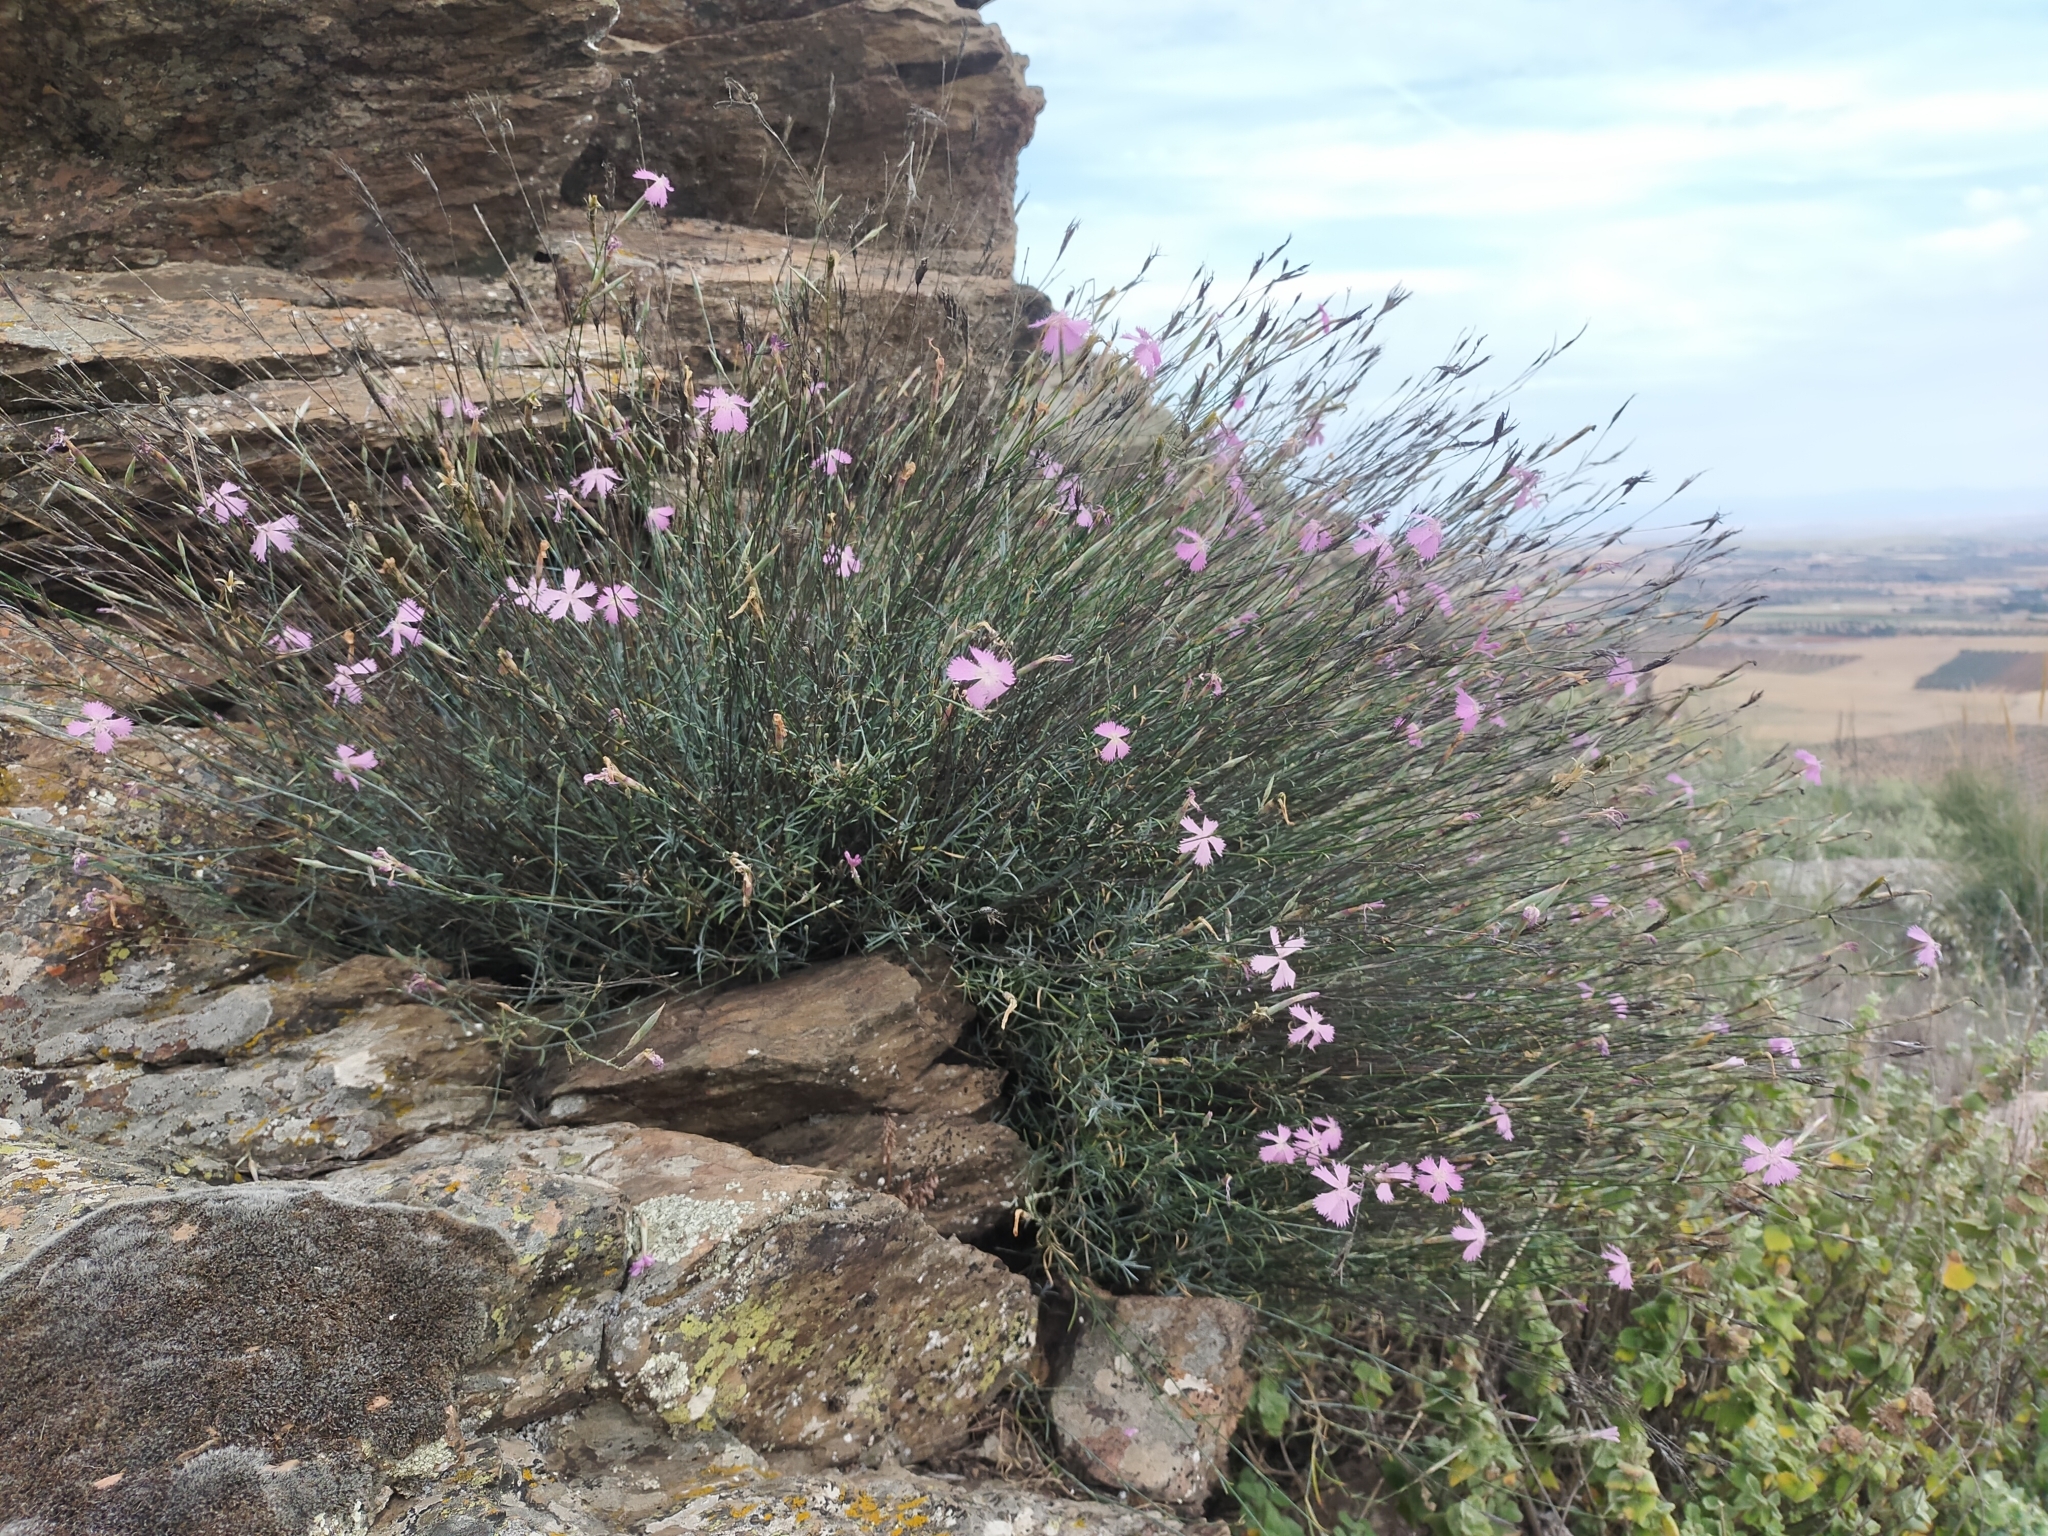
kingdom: Plantae
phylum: Tracheophyta
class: Magnoliopsida
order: Caryophyllales
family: Caryophyllaceae
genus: Dianthus
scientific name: Dianthus lusitanus
